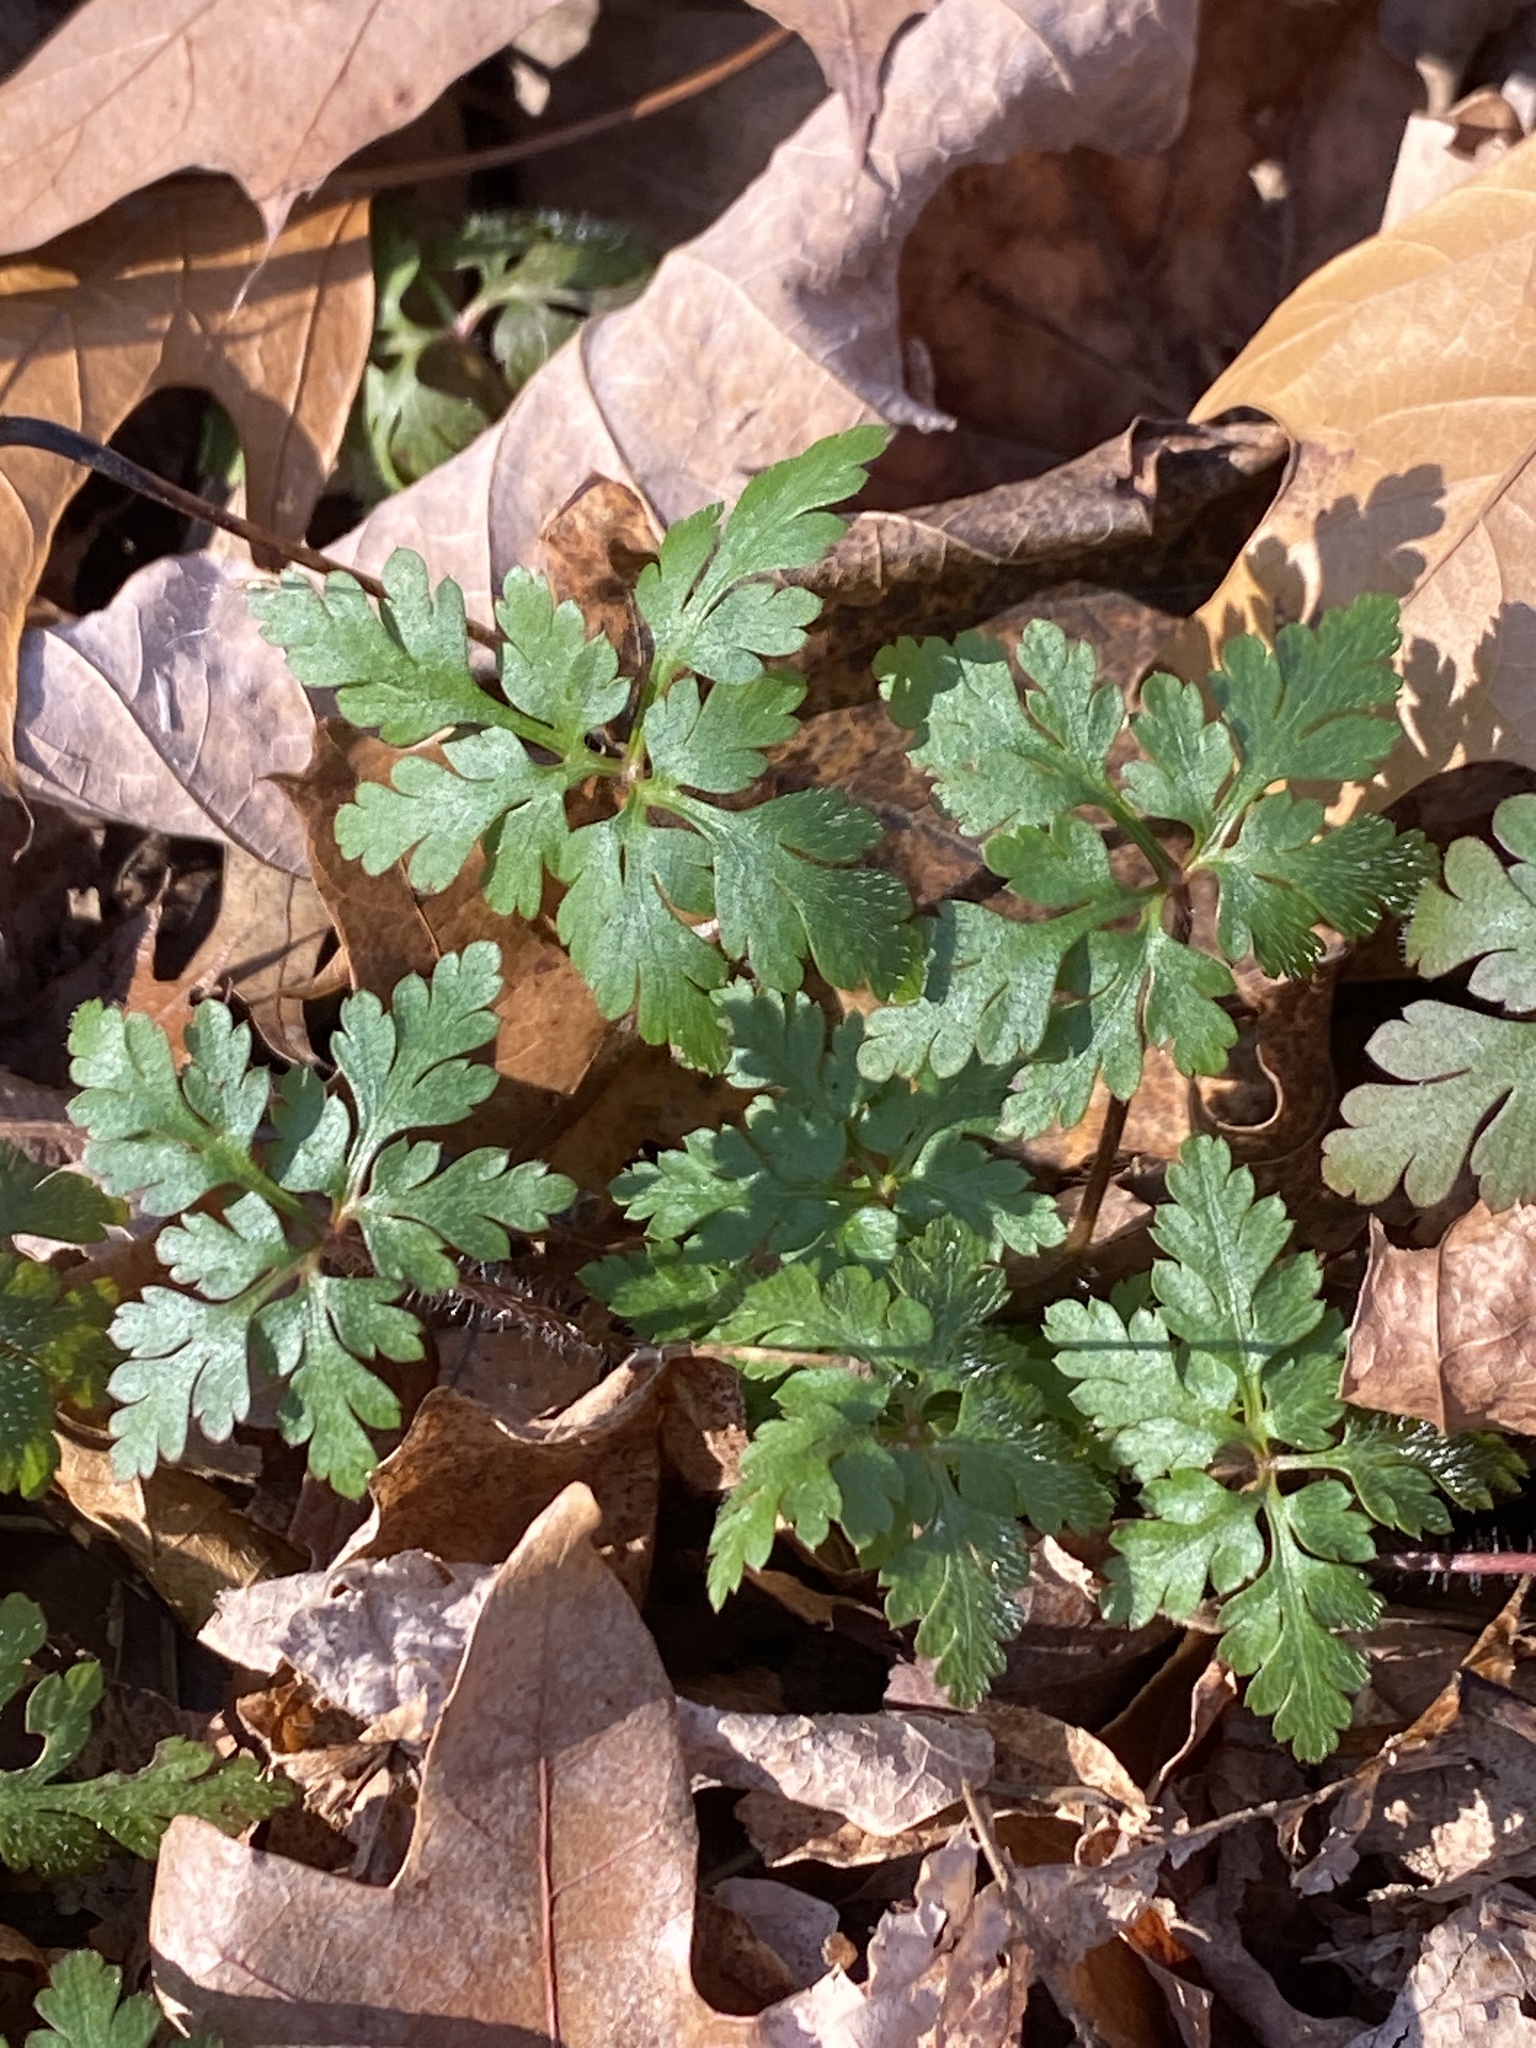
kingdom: Plantae
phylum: Tracheophyta
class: Magnoliopsida
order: Geraniales
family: Geraniaceae
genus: Geranium
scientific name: Geranium robertianum
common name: Herb-robert
